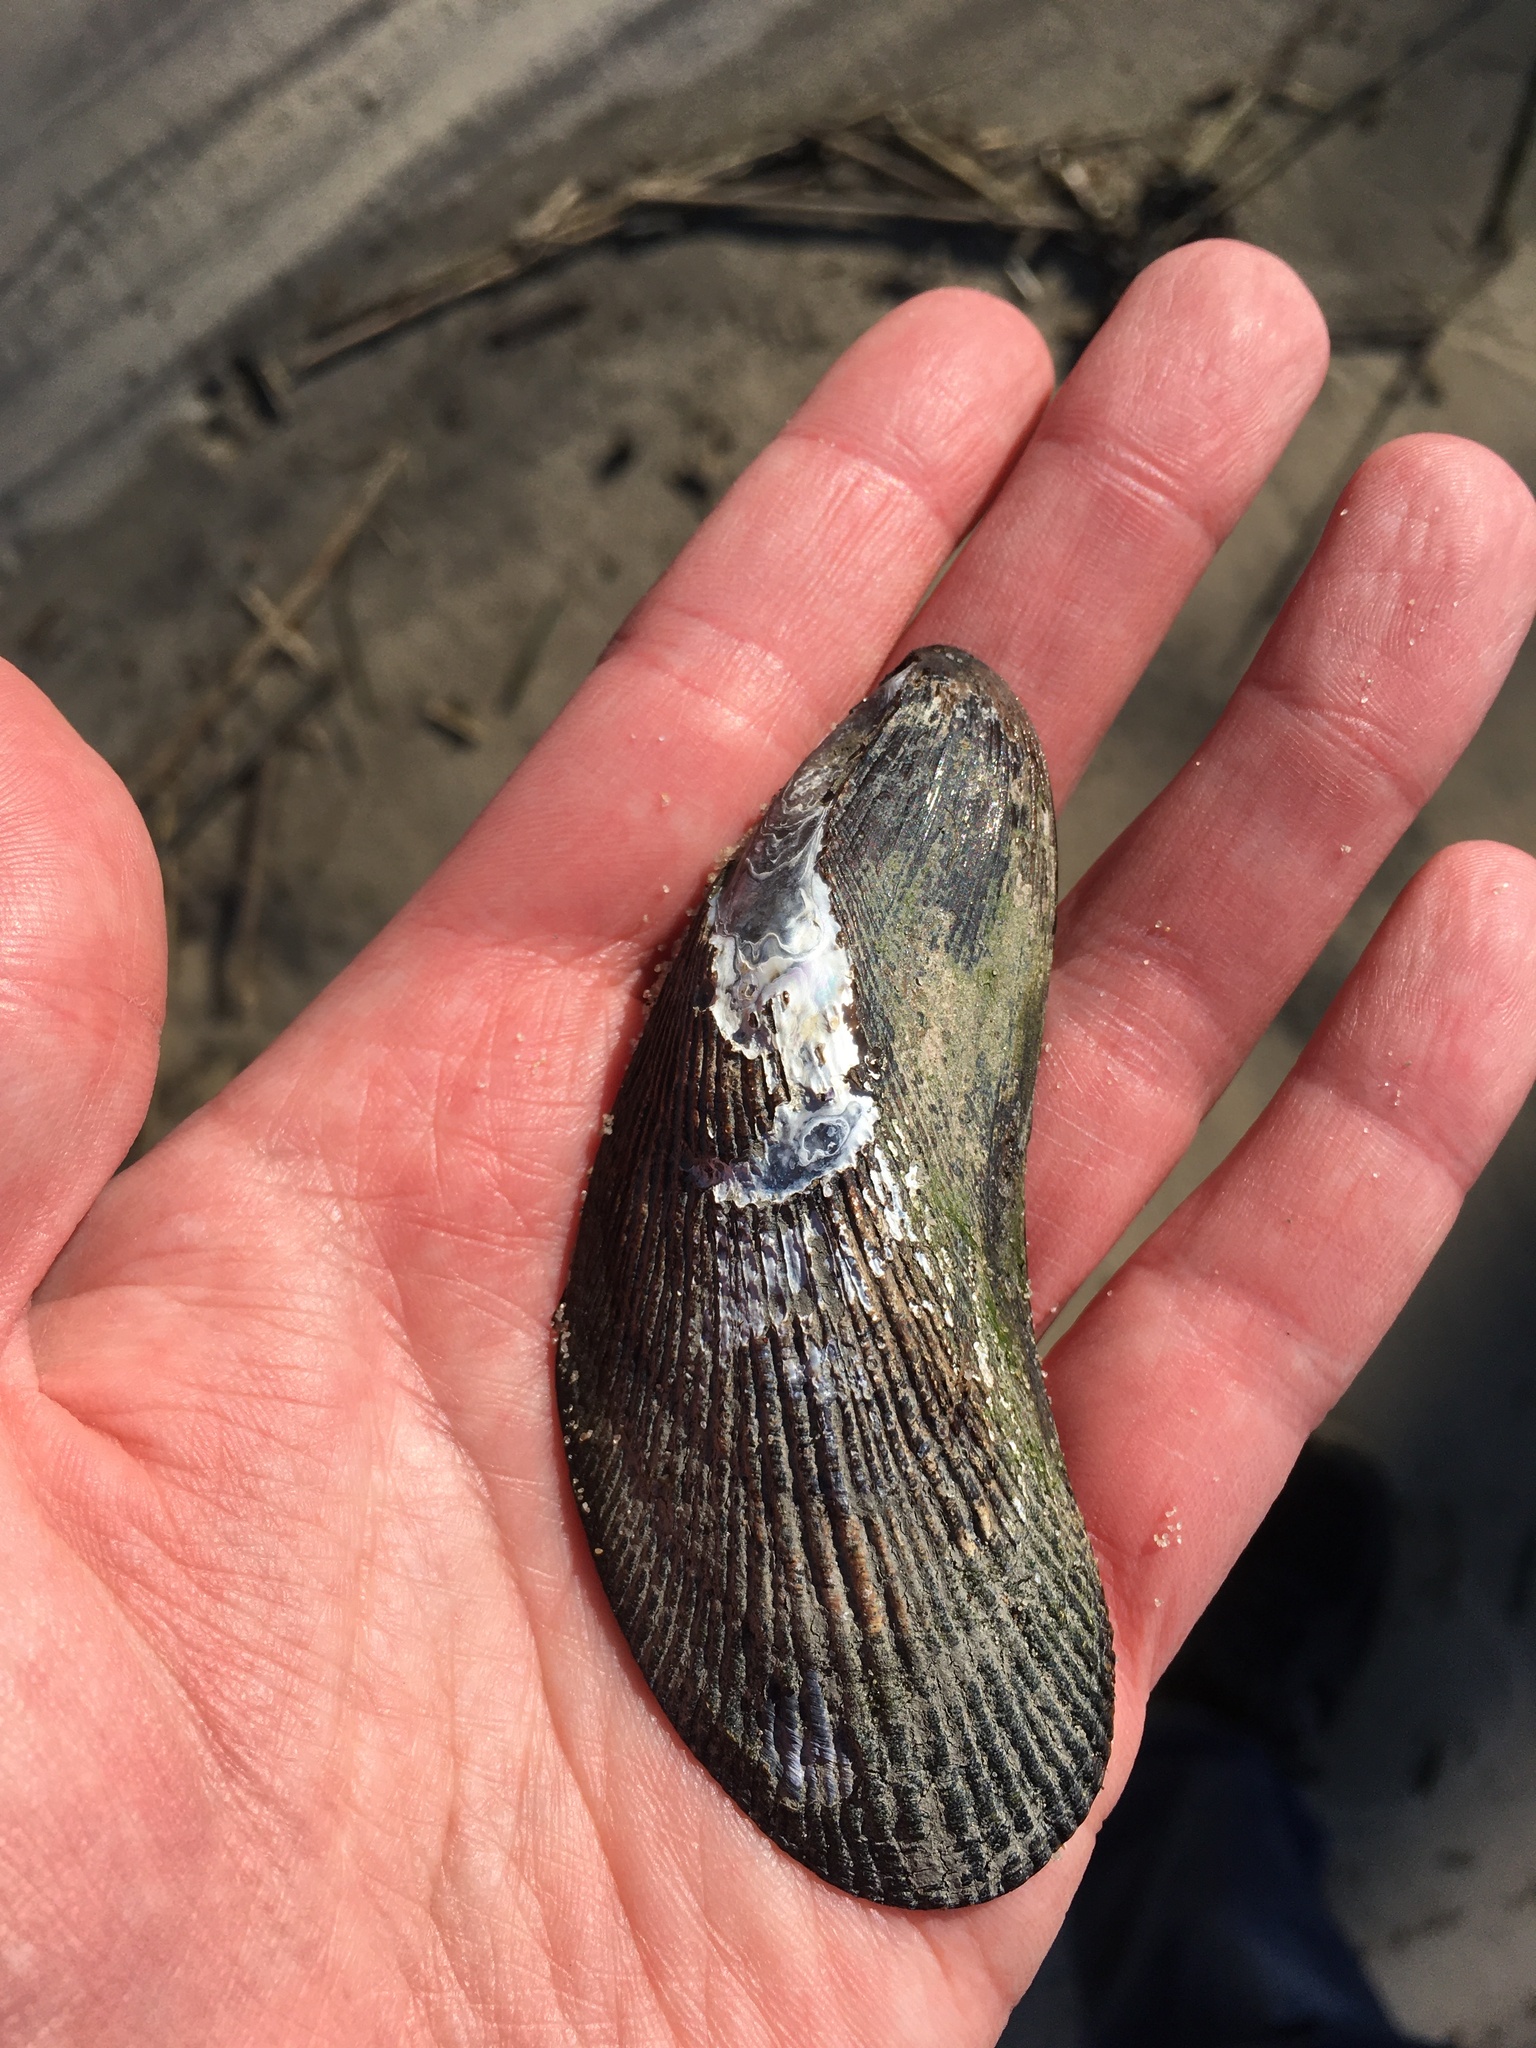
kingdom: Animalia
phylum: Mollusca
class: Bivalvia
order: Mytilida
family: Mytilidae
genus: Geukensia
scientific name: Geukensia demissa
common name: Ribbed mussel
